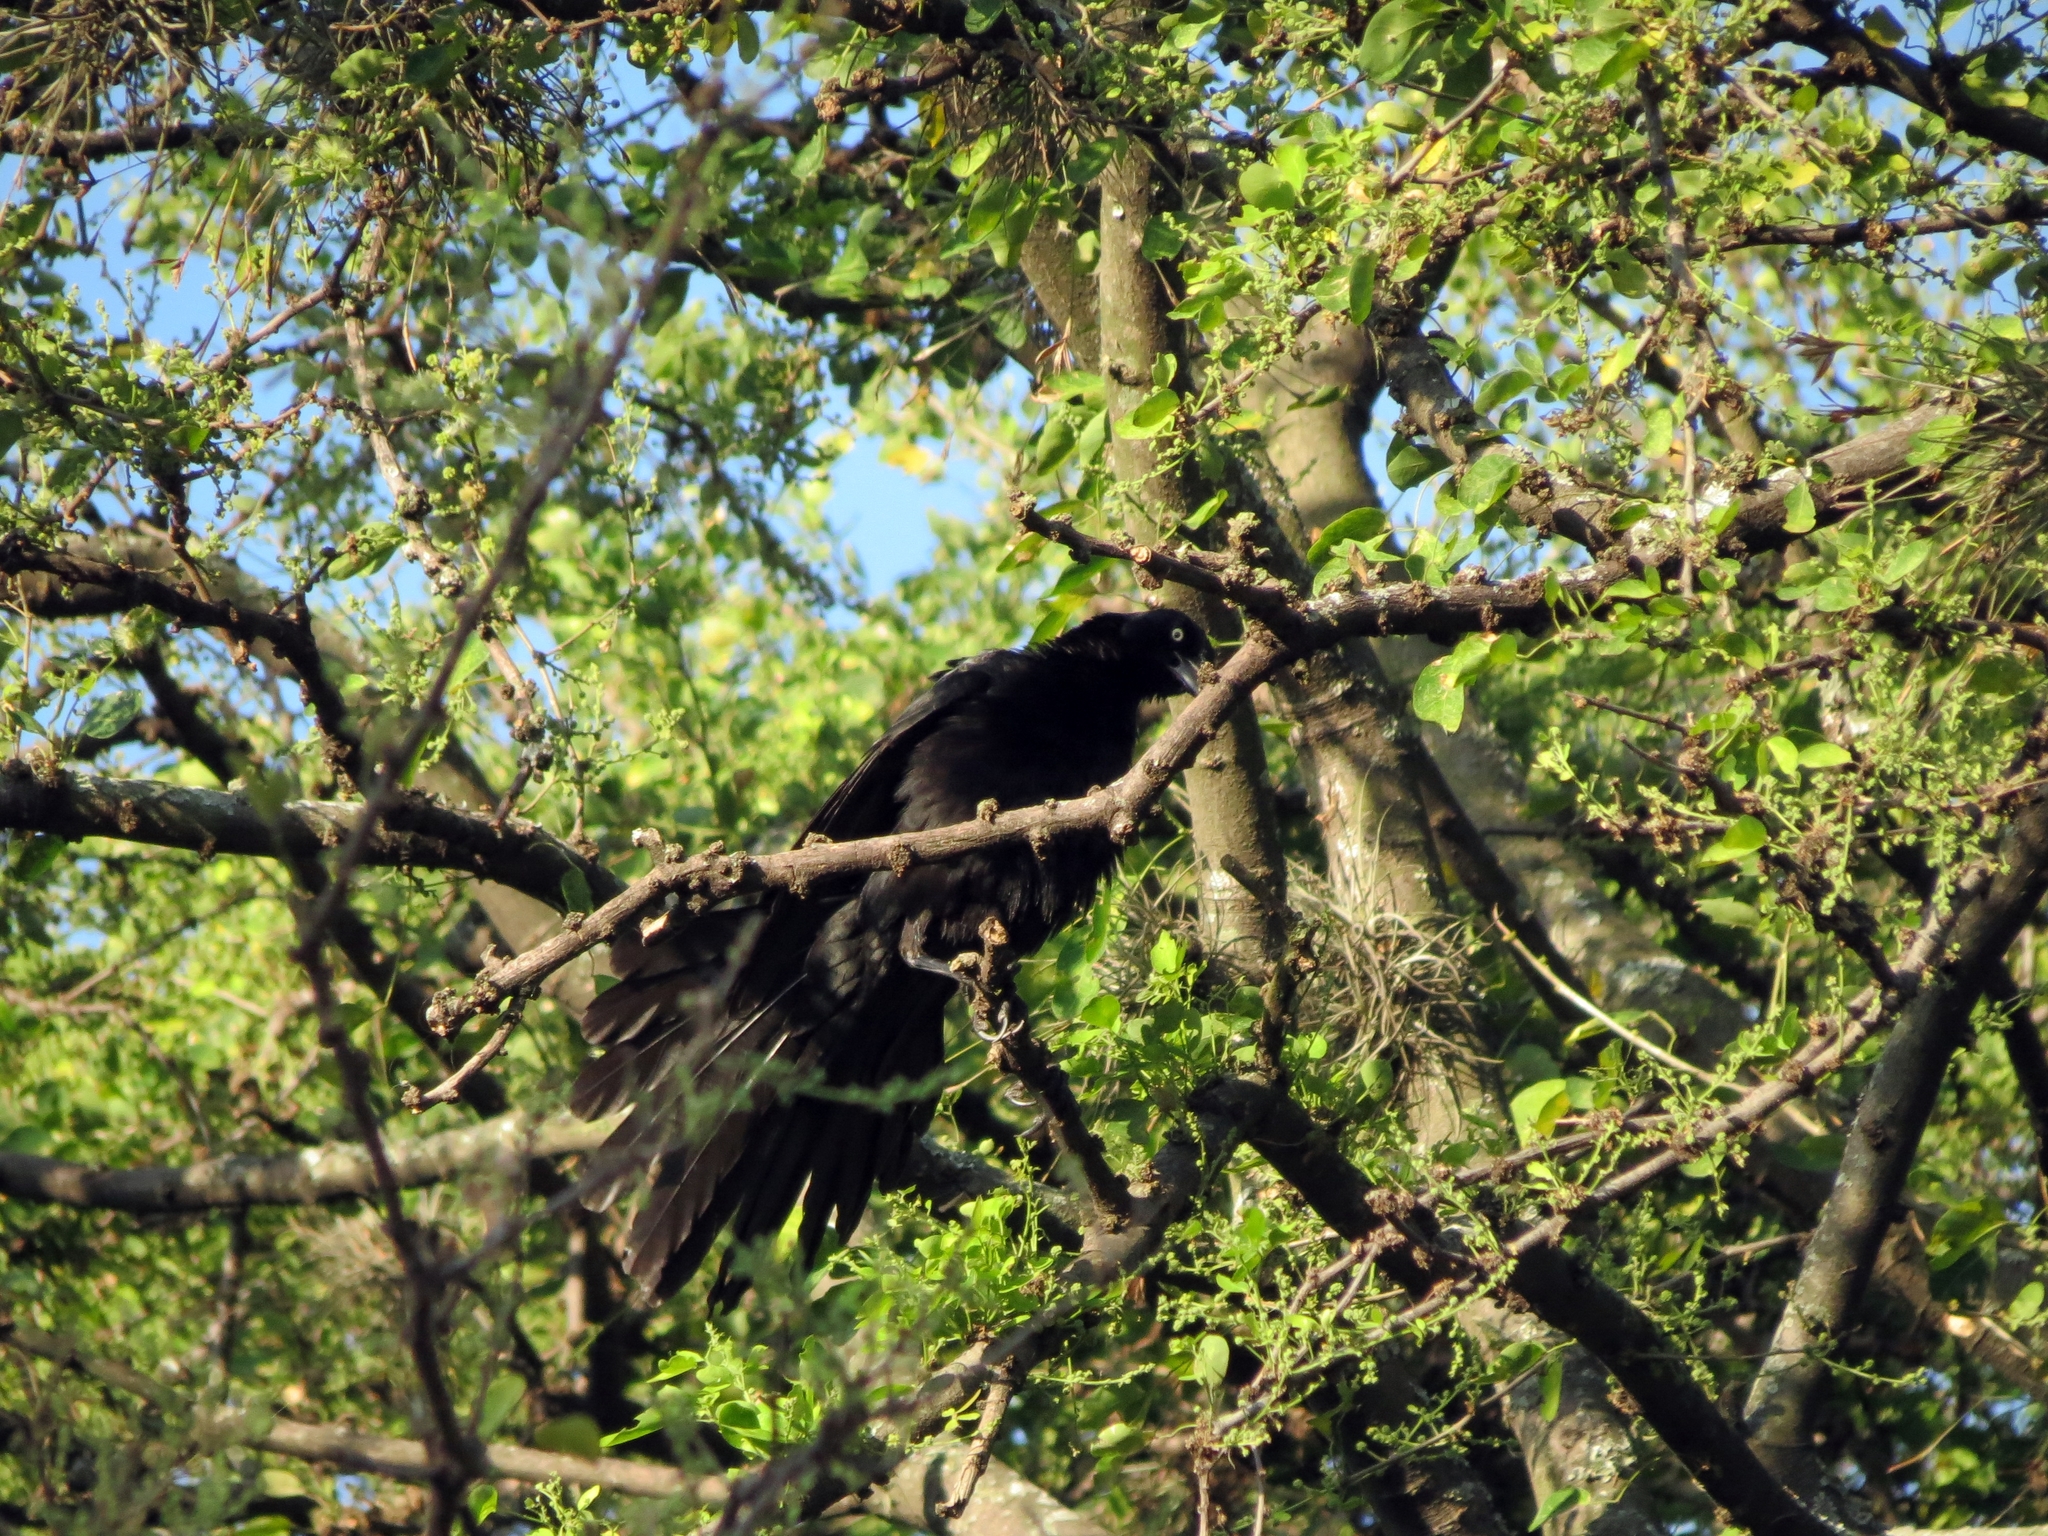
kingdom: Animalia
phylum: Chordata
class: Aves
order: Passeriformes
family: Icteridae
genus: Quiscalus
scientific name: Quiscalus mexicanus
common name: Great-tailed grackle
